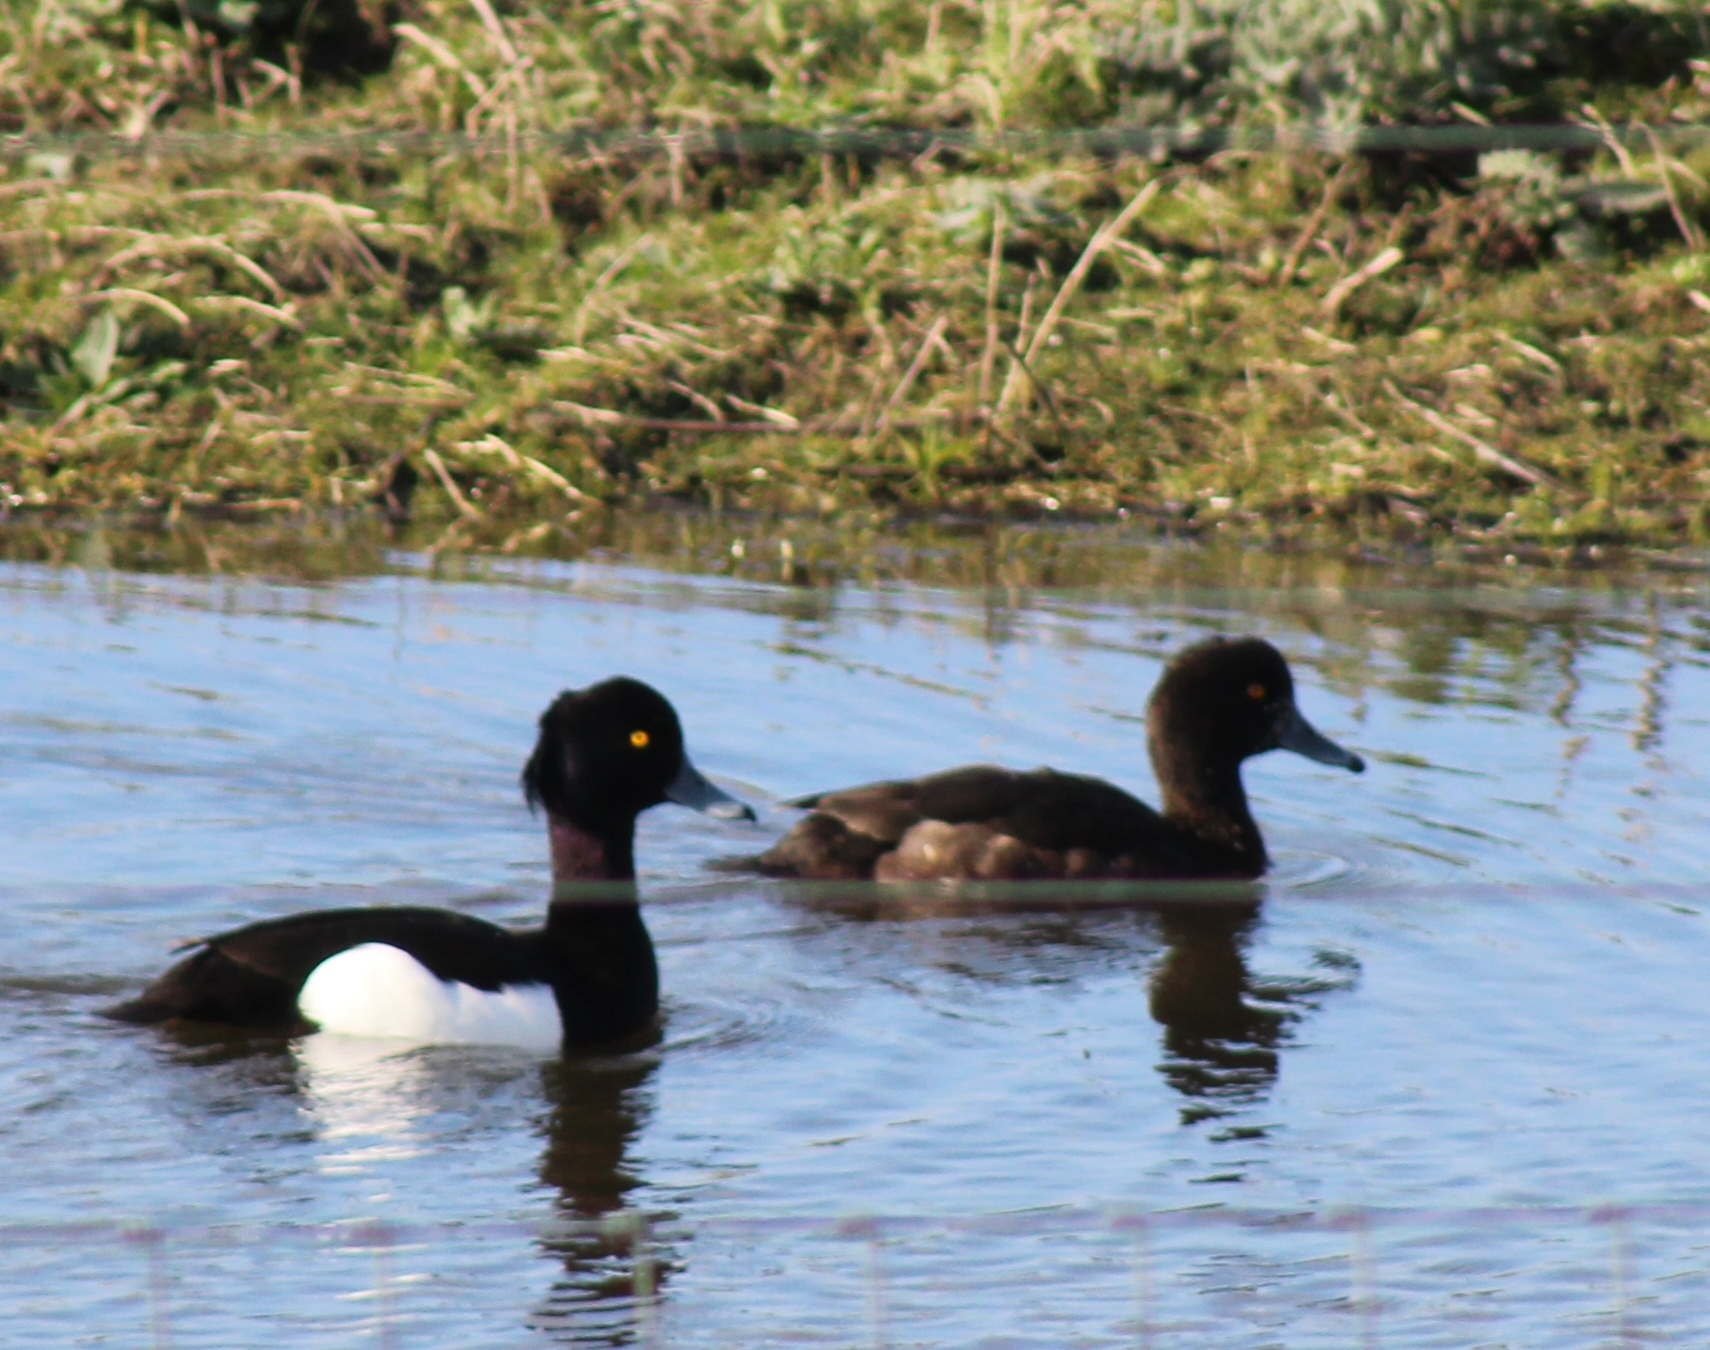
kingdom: Animalia
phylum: Chordata
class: Aves
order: Anseriformes
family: Anatidae
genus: Aythya
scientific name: Aythya fuligula
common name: Tufted duck
